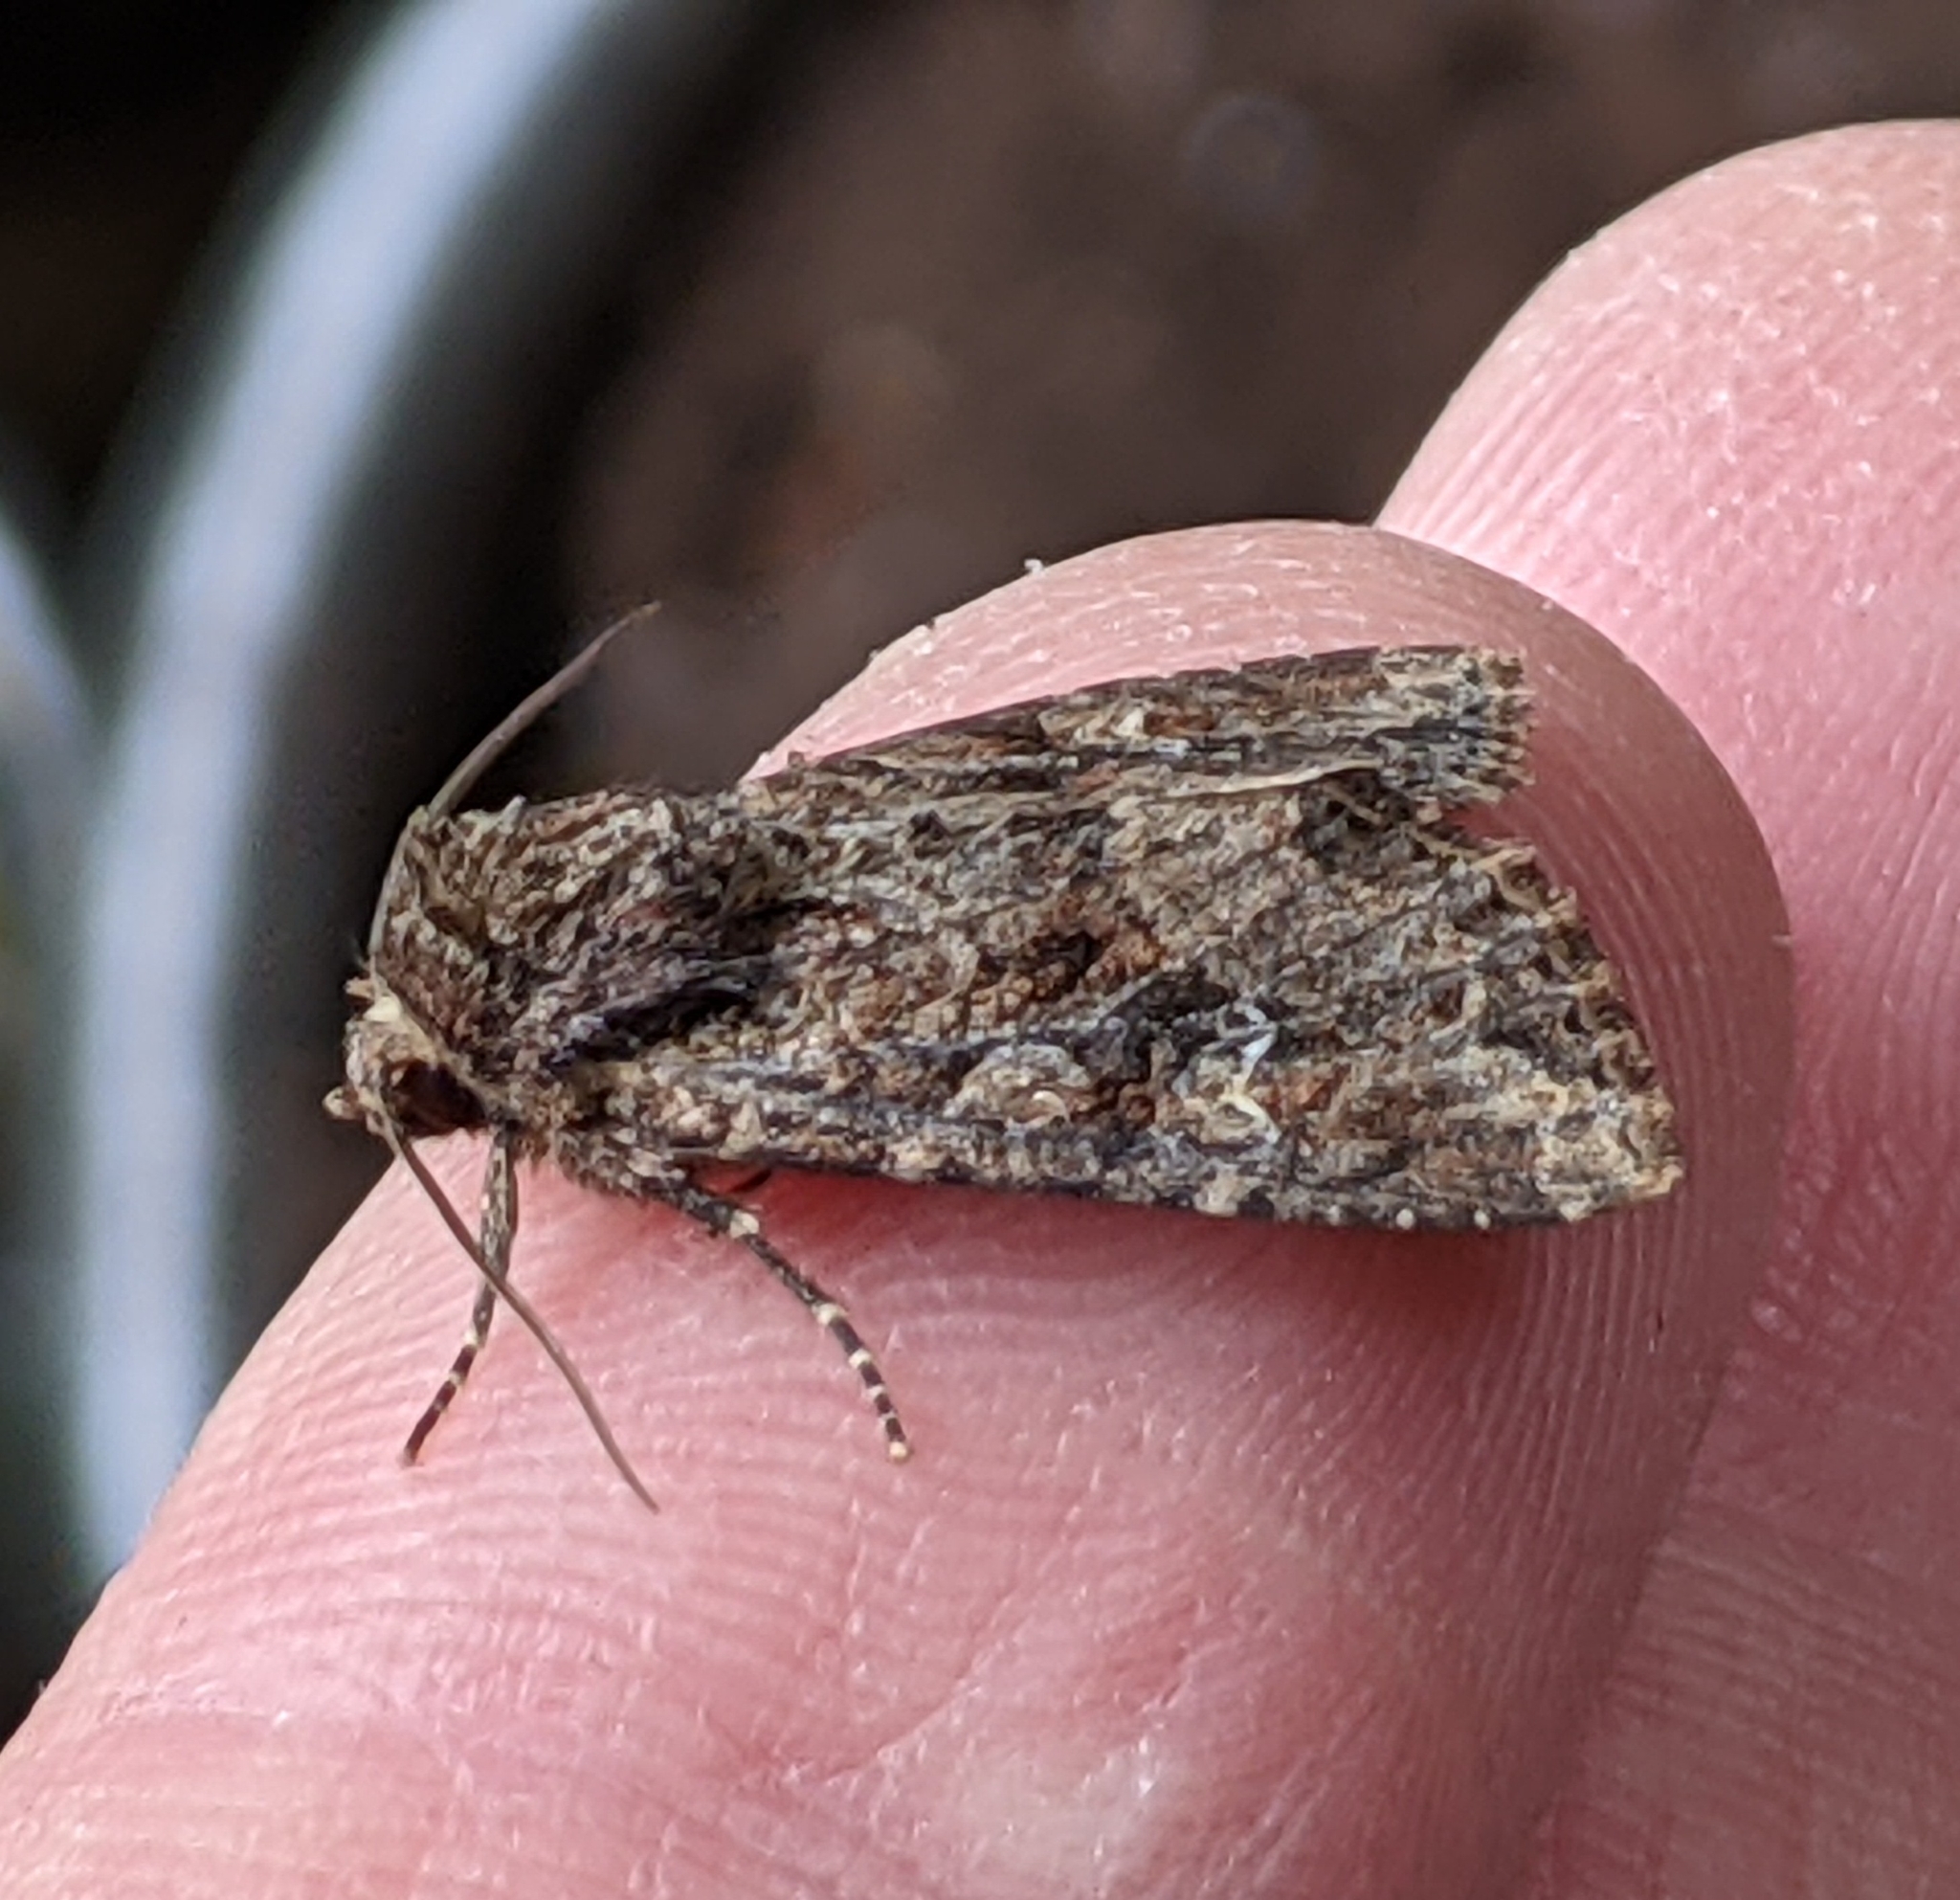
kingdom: Animalia
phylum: Arthropoda
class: Insecta
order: Lepidoptera
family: Noctuidae
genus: Apamea
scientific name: Apamea unanimis
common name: Small clouded brindle
